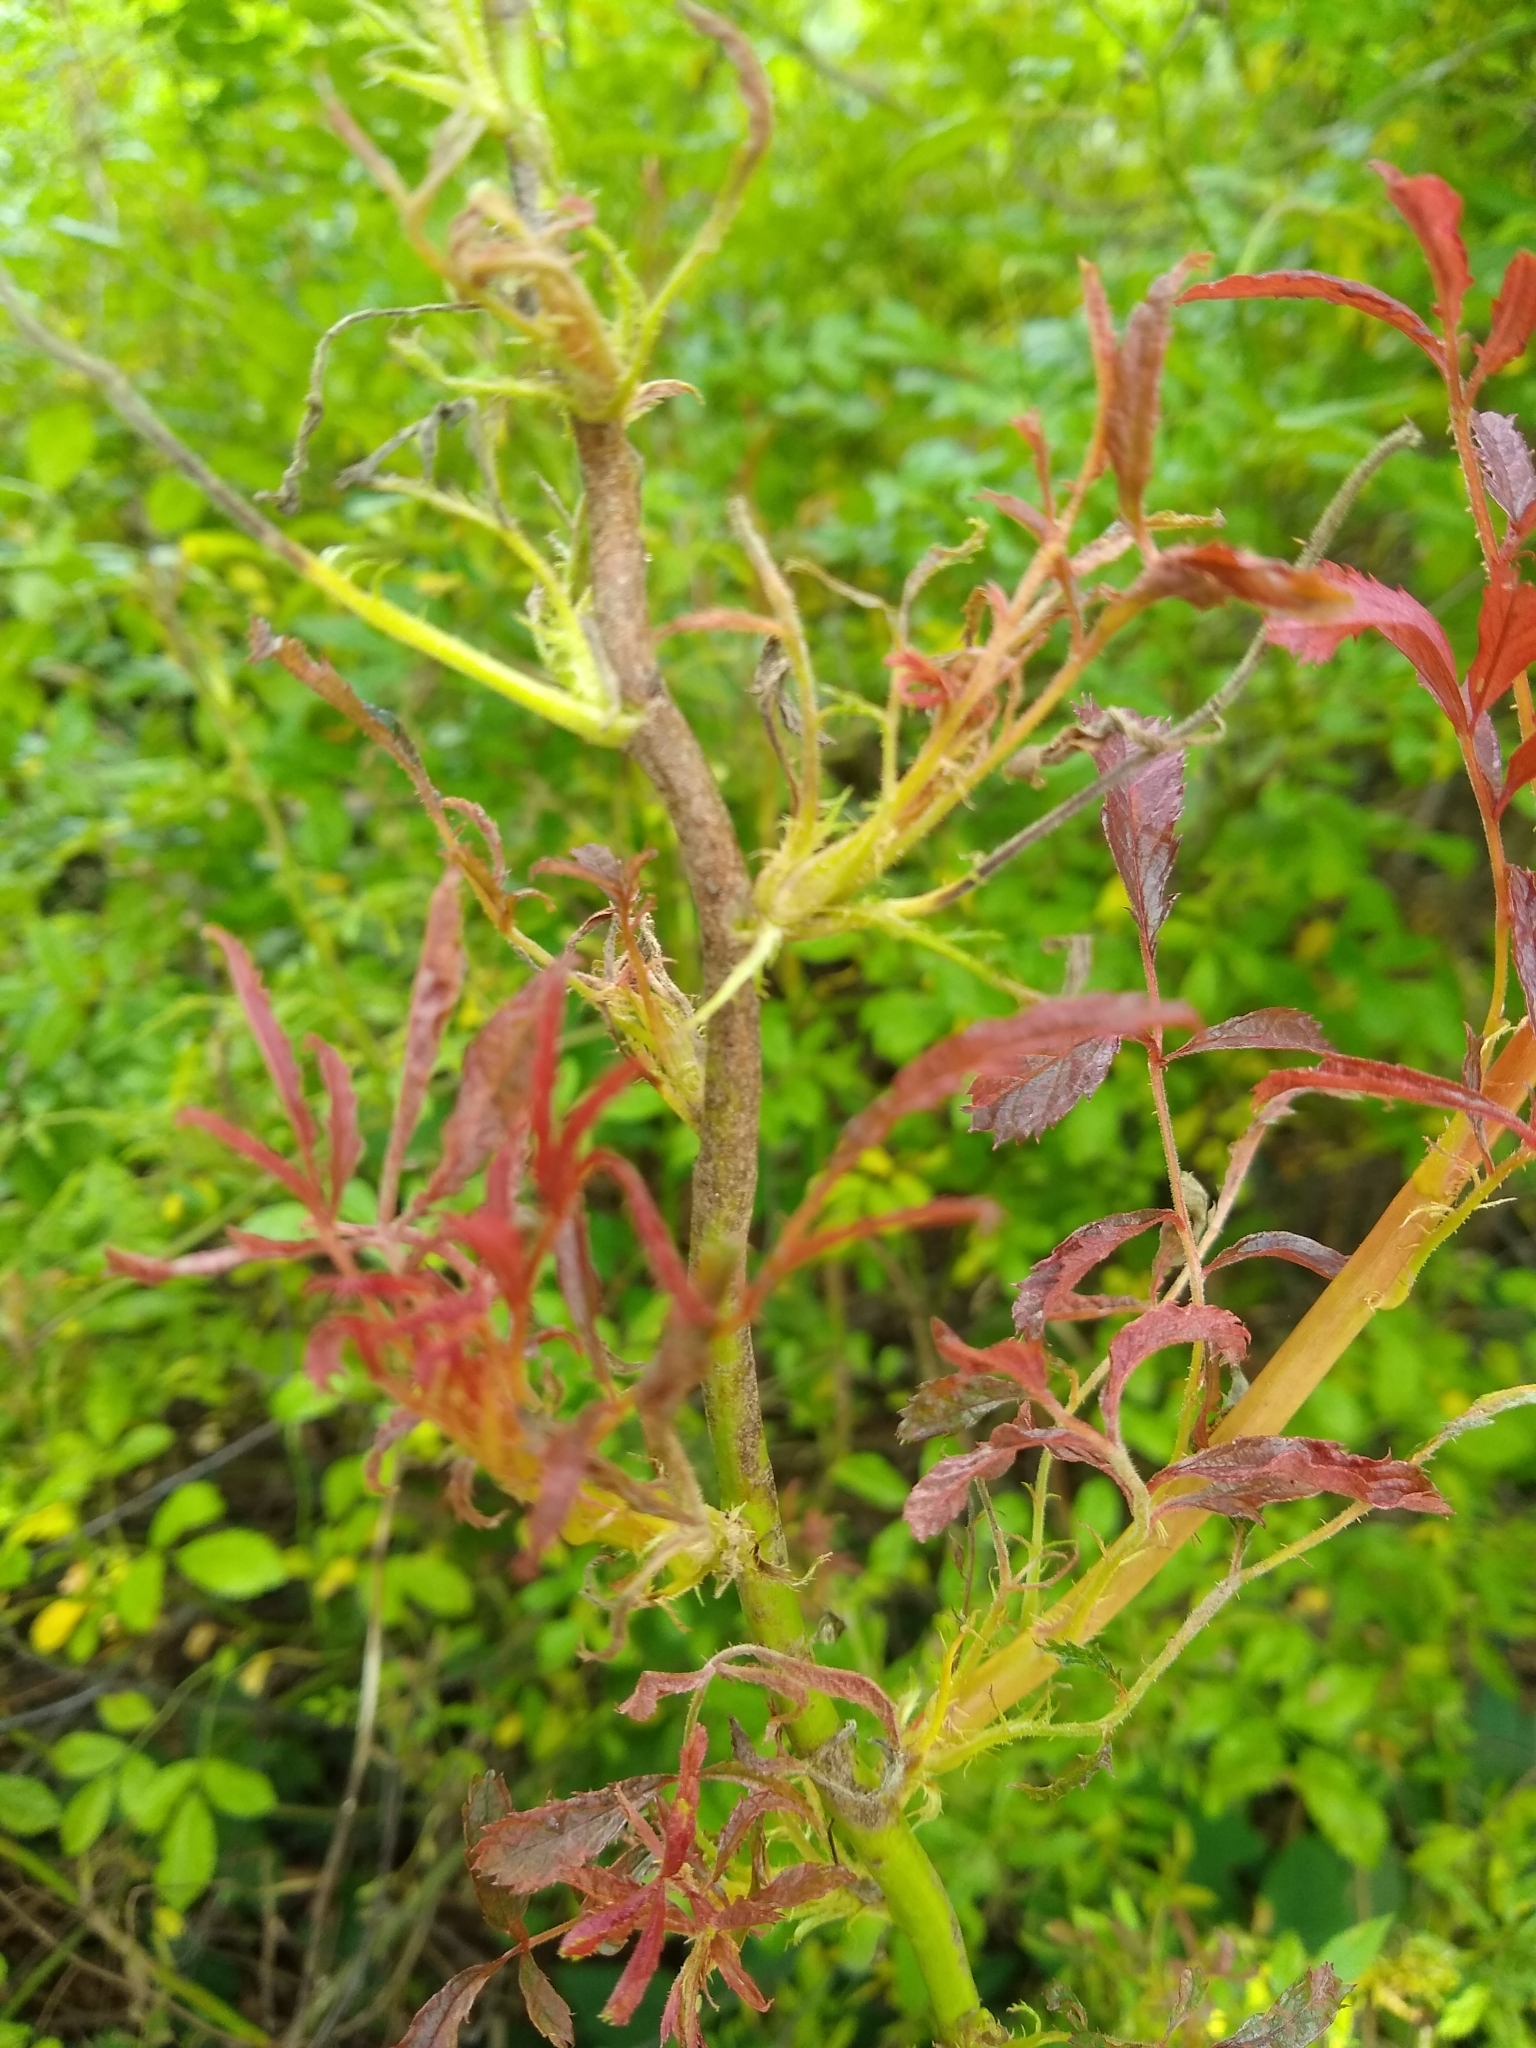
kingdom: Plantae
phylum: Tracheophyta
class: Magnoliopsida
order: Rosales
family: Rosaceae
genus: Rosa
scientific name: Rosa multiflora
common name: Multiflora rose
